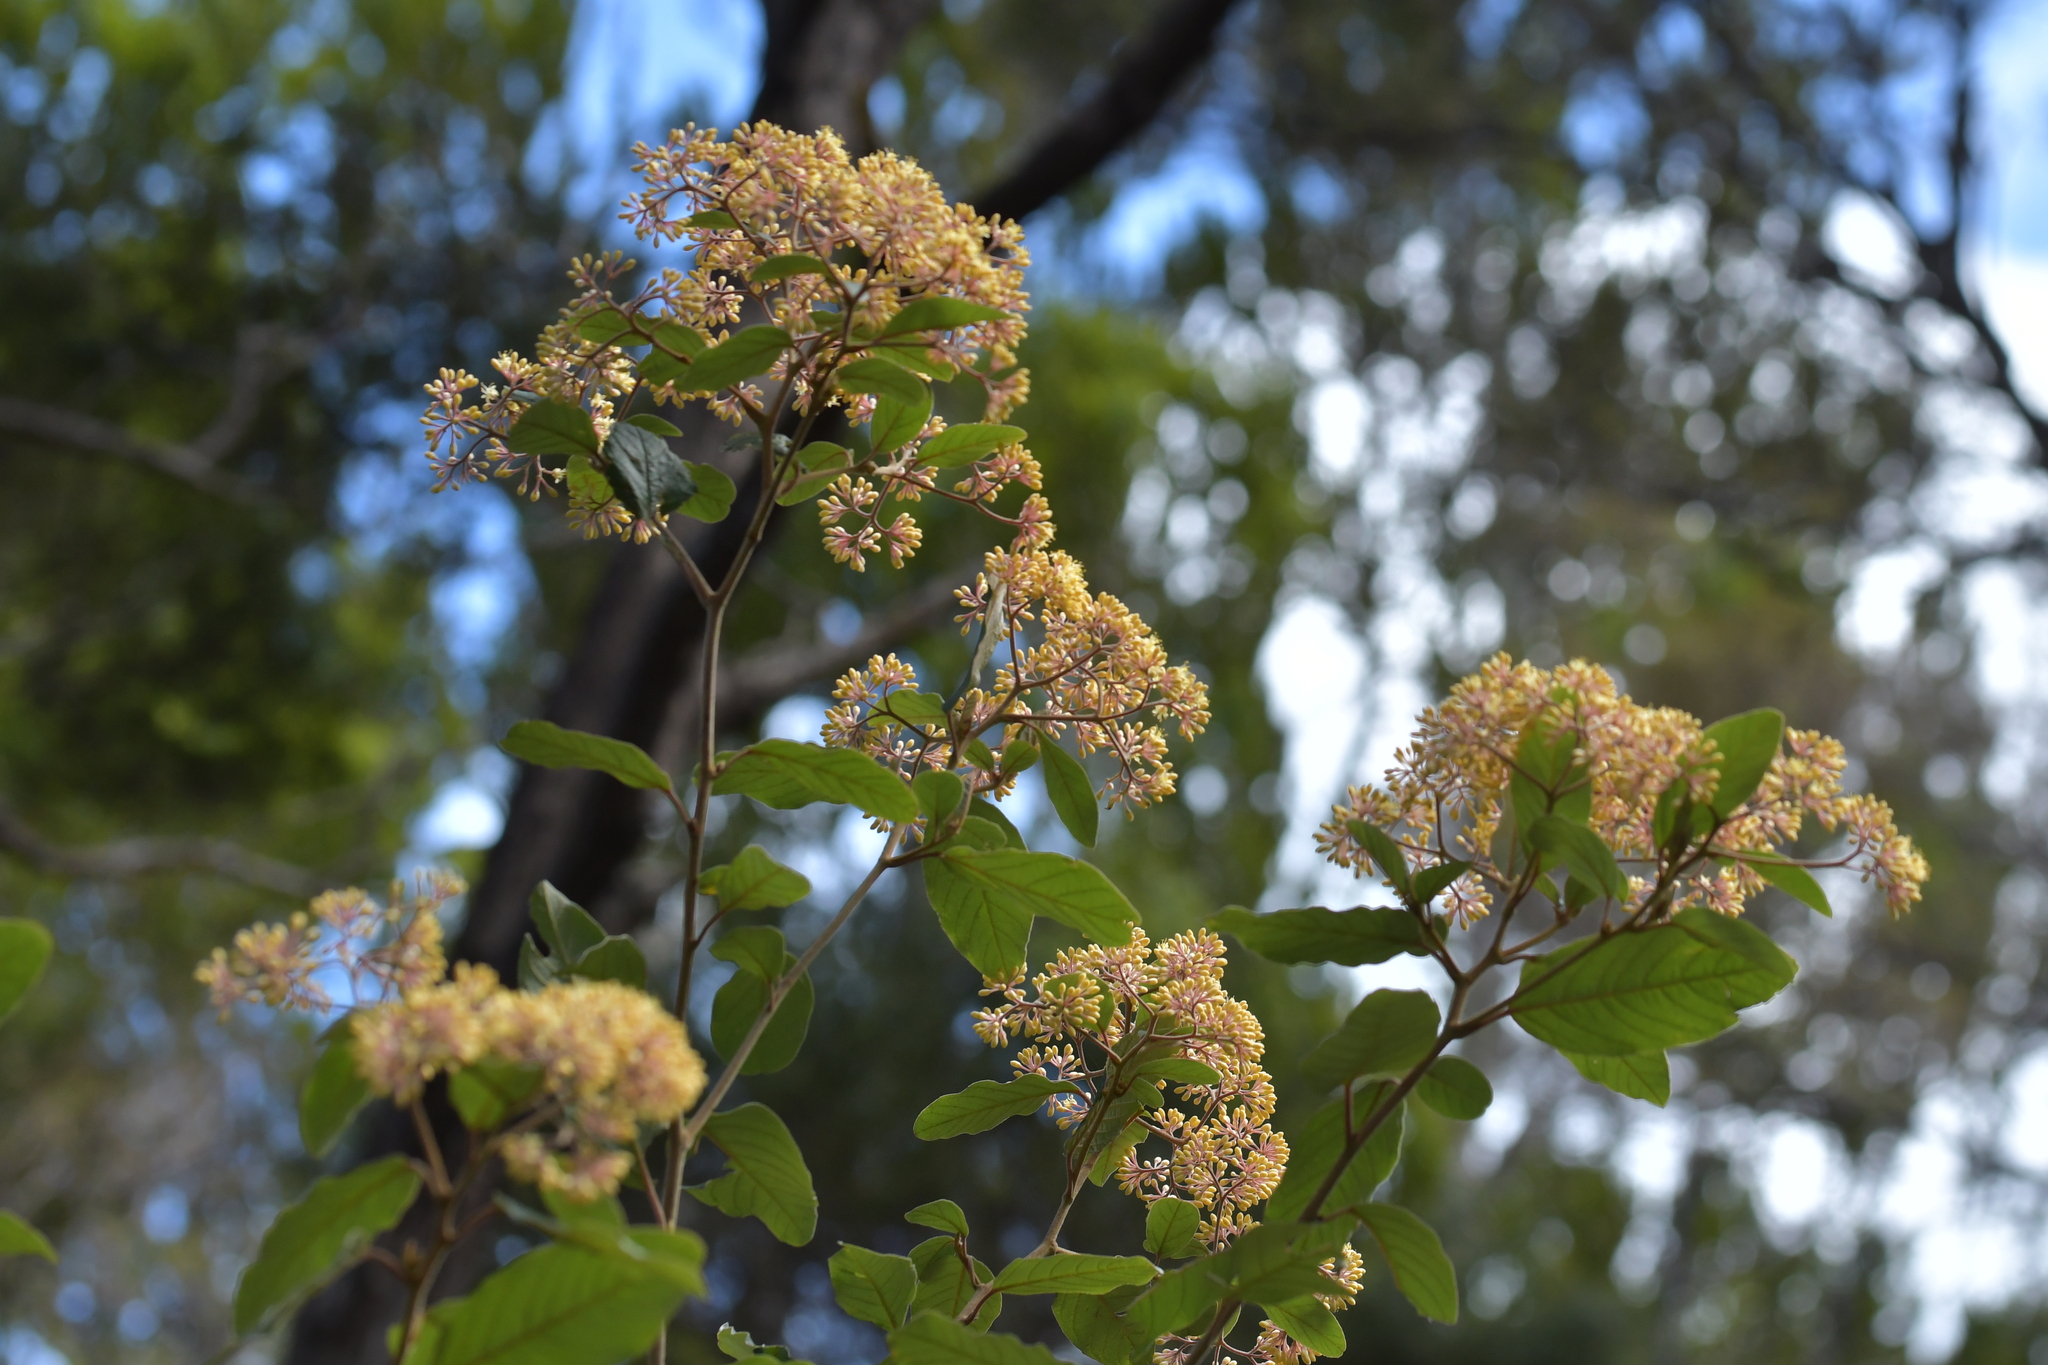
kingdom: Plantae
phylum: Tracheophyta
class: Magnoliopsida
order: Rosales
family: Rhamnaceae
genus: Pomaderris
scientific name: Pomaderris kumeraho
